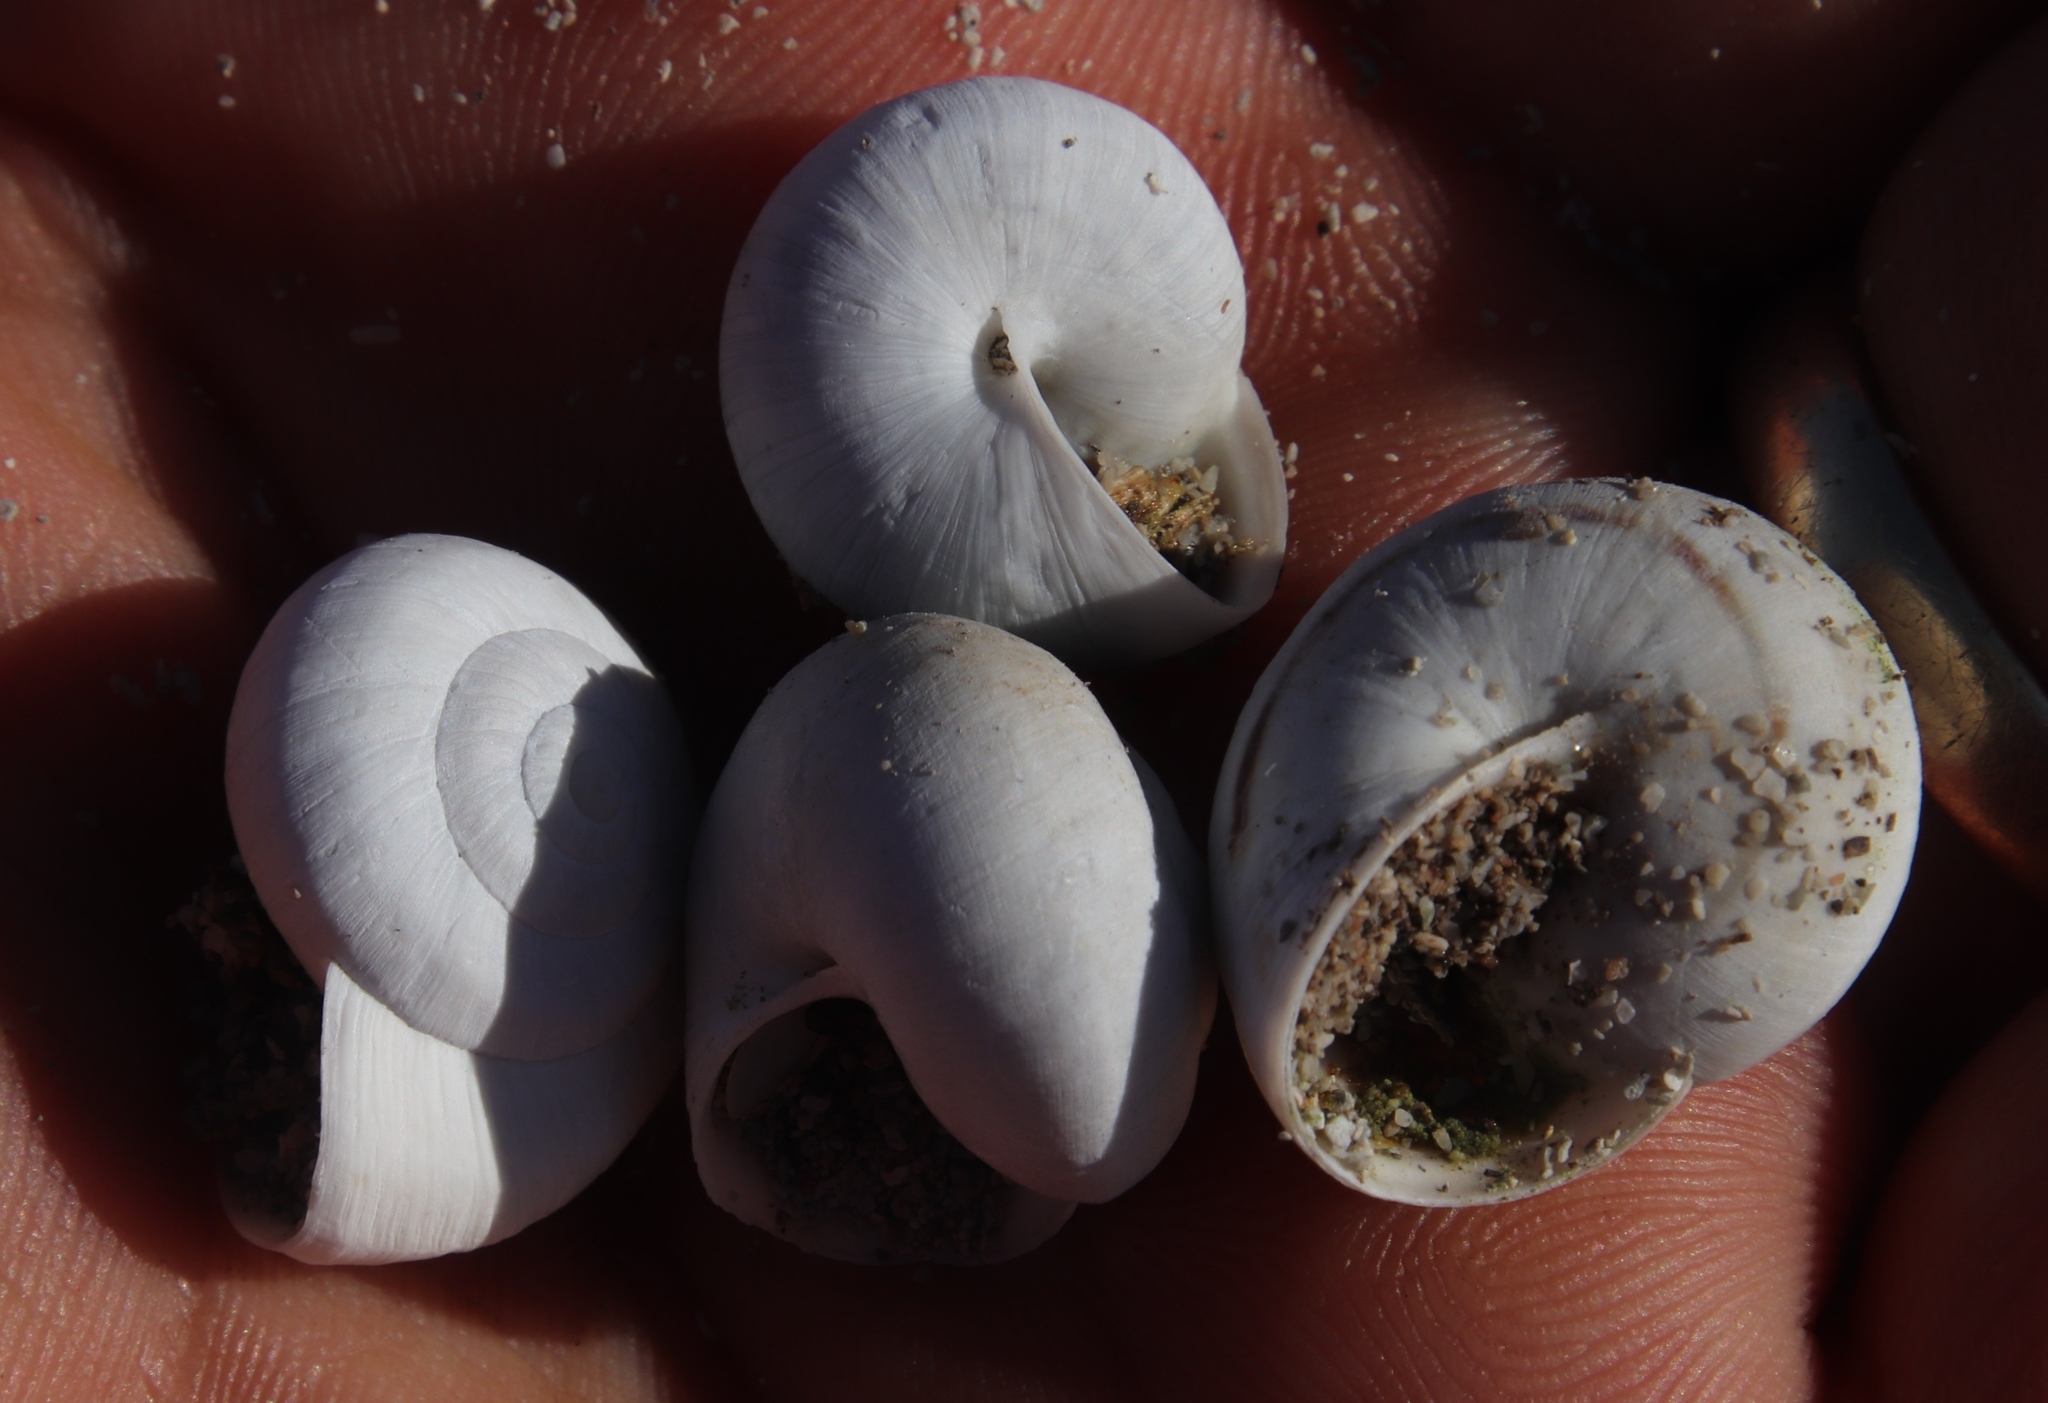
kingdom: Animalia
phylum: Mollusca
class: Gastropoda
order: Stylommatophora
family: Helicidae
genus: Theba
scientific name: Theba pisana
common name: White snail
